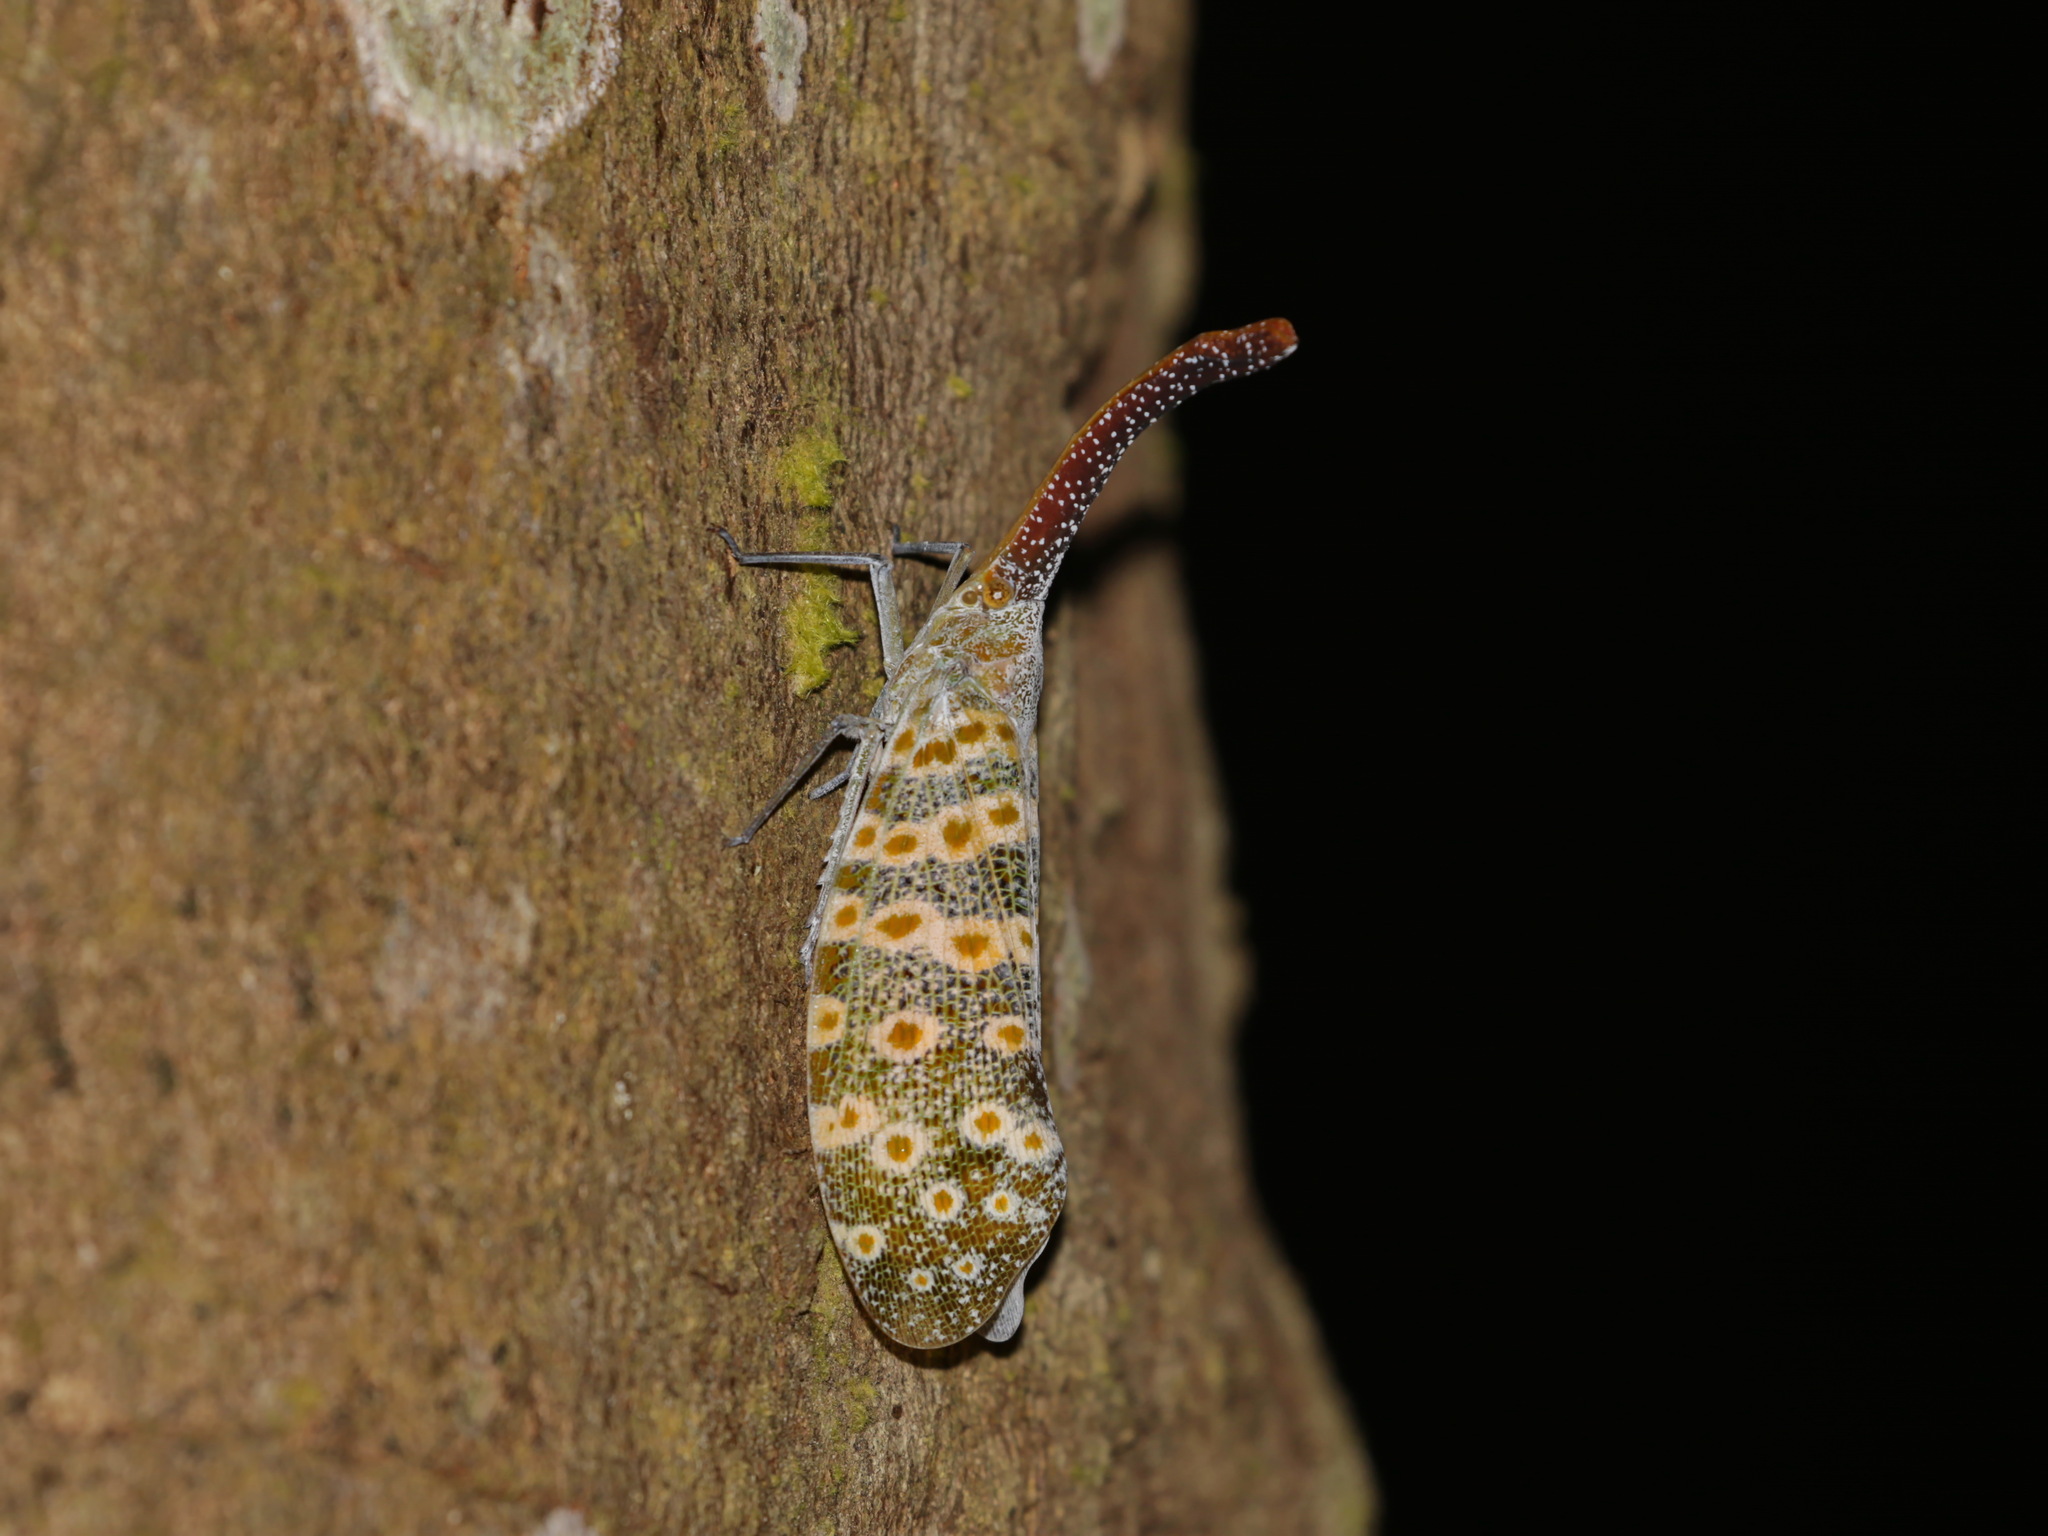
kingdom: Animalia
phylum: Arthropoda
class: Insecta
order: Hemiptera
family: Fulgoridae
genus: Pyrops
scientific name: Pyrops oculatus
